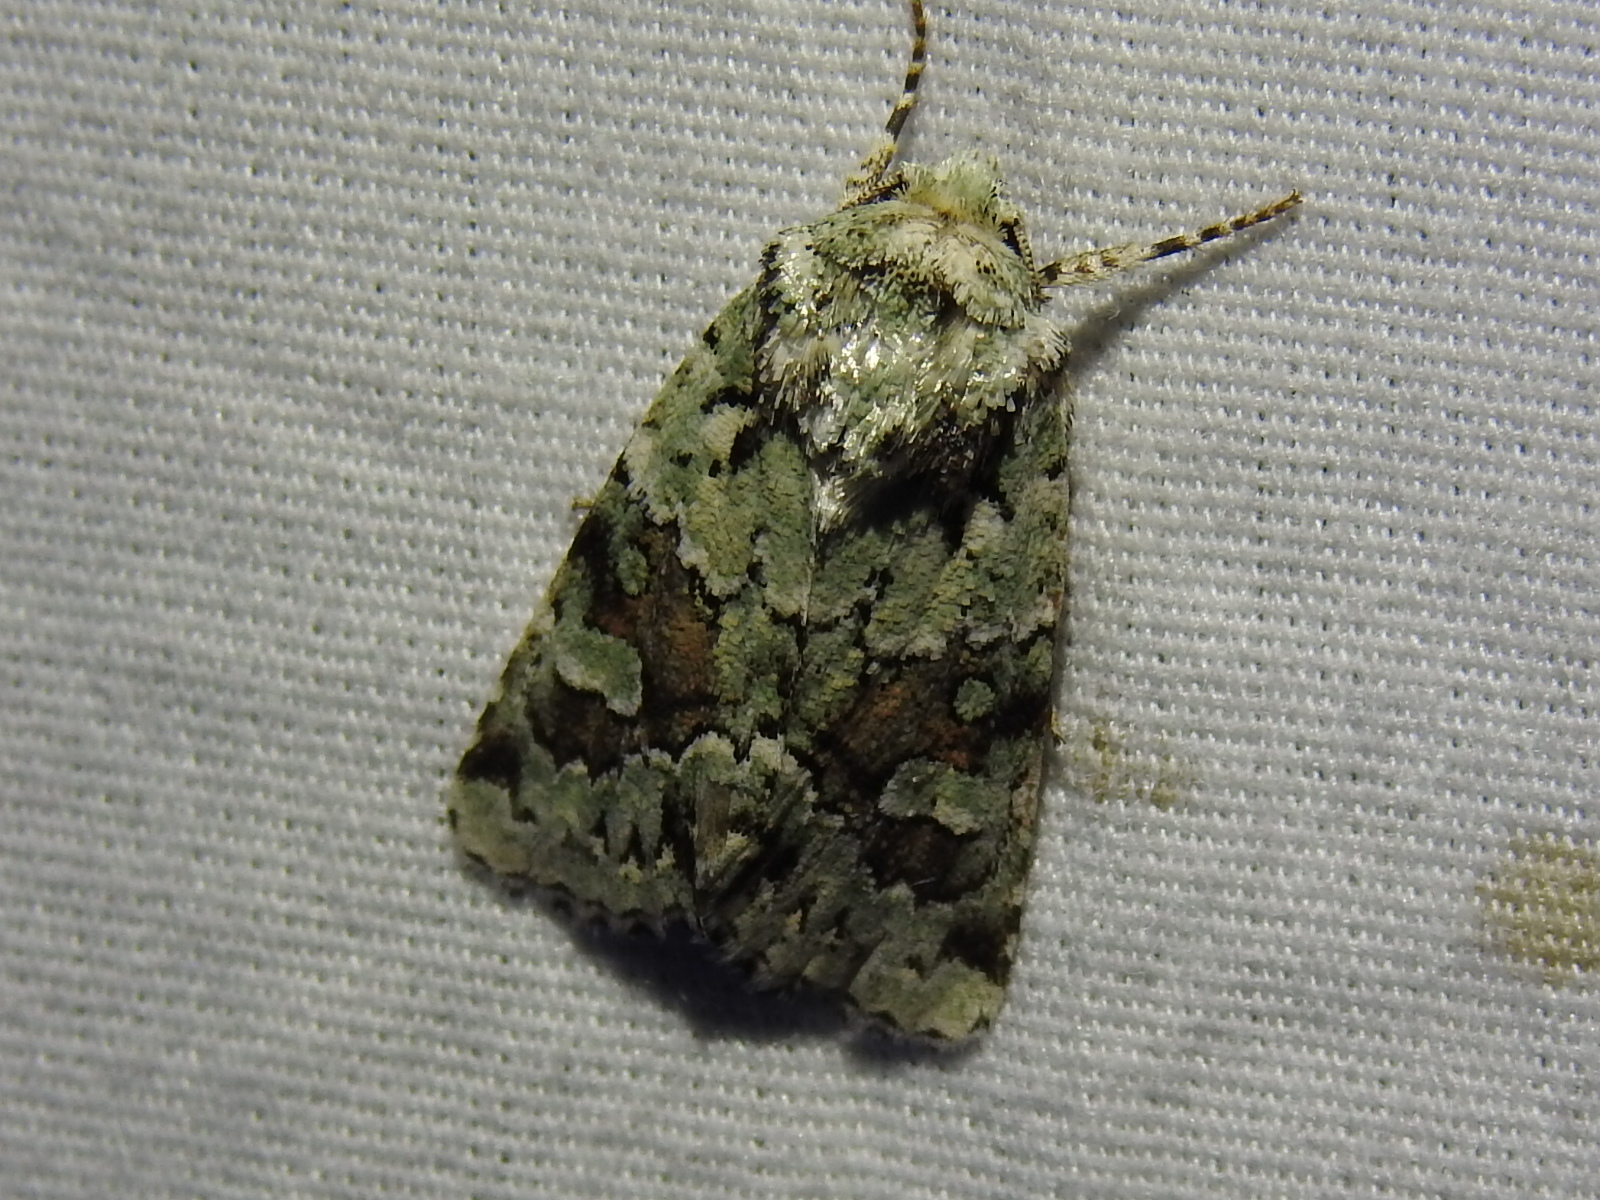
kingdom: Animalia
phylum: Arthropoda
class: Insecta
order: Lepidoptera
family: Noctuidae
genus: Lacinipolia
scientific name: Lacinipolia laudabilis
